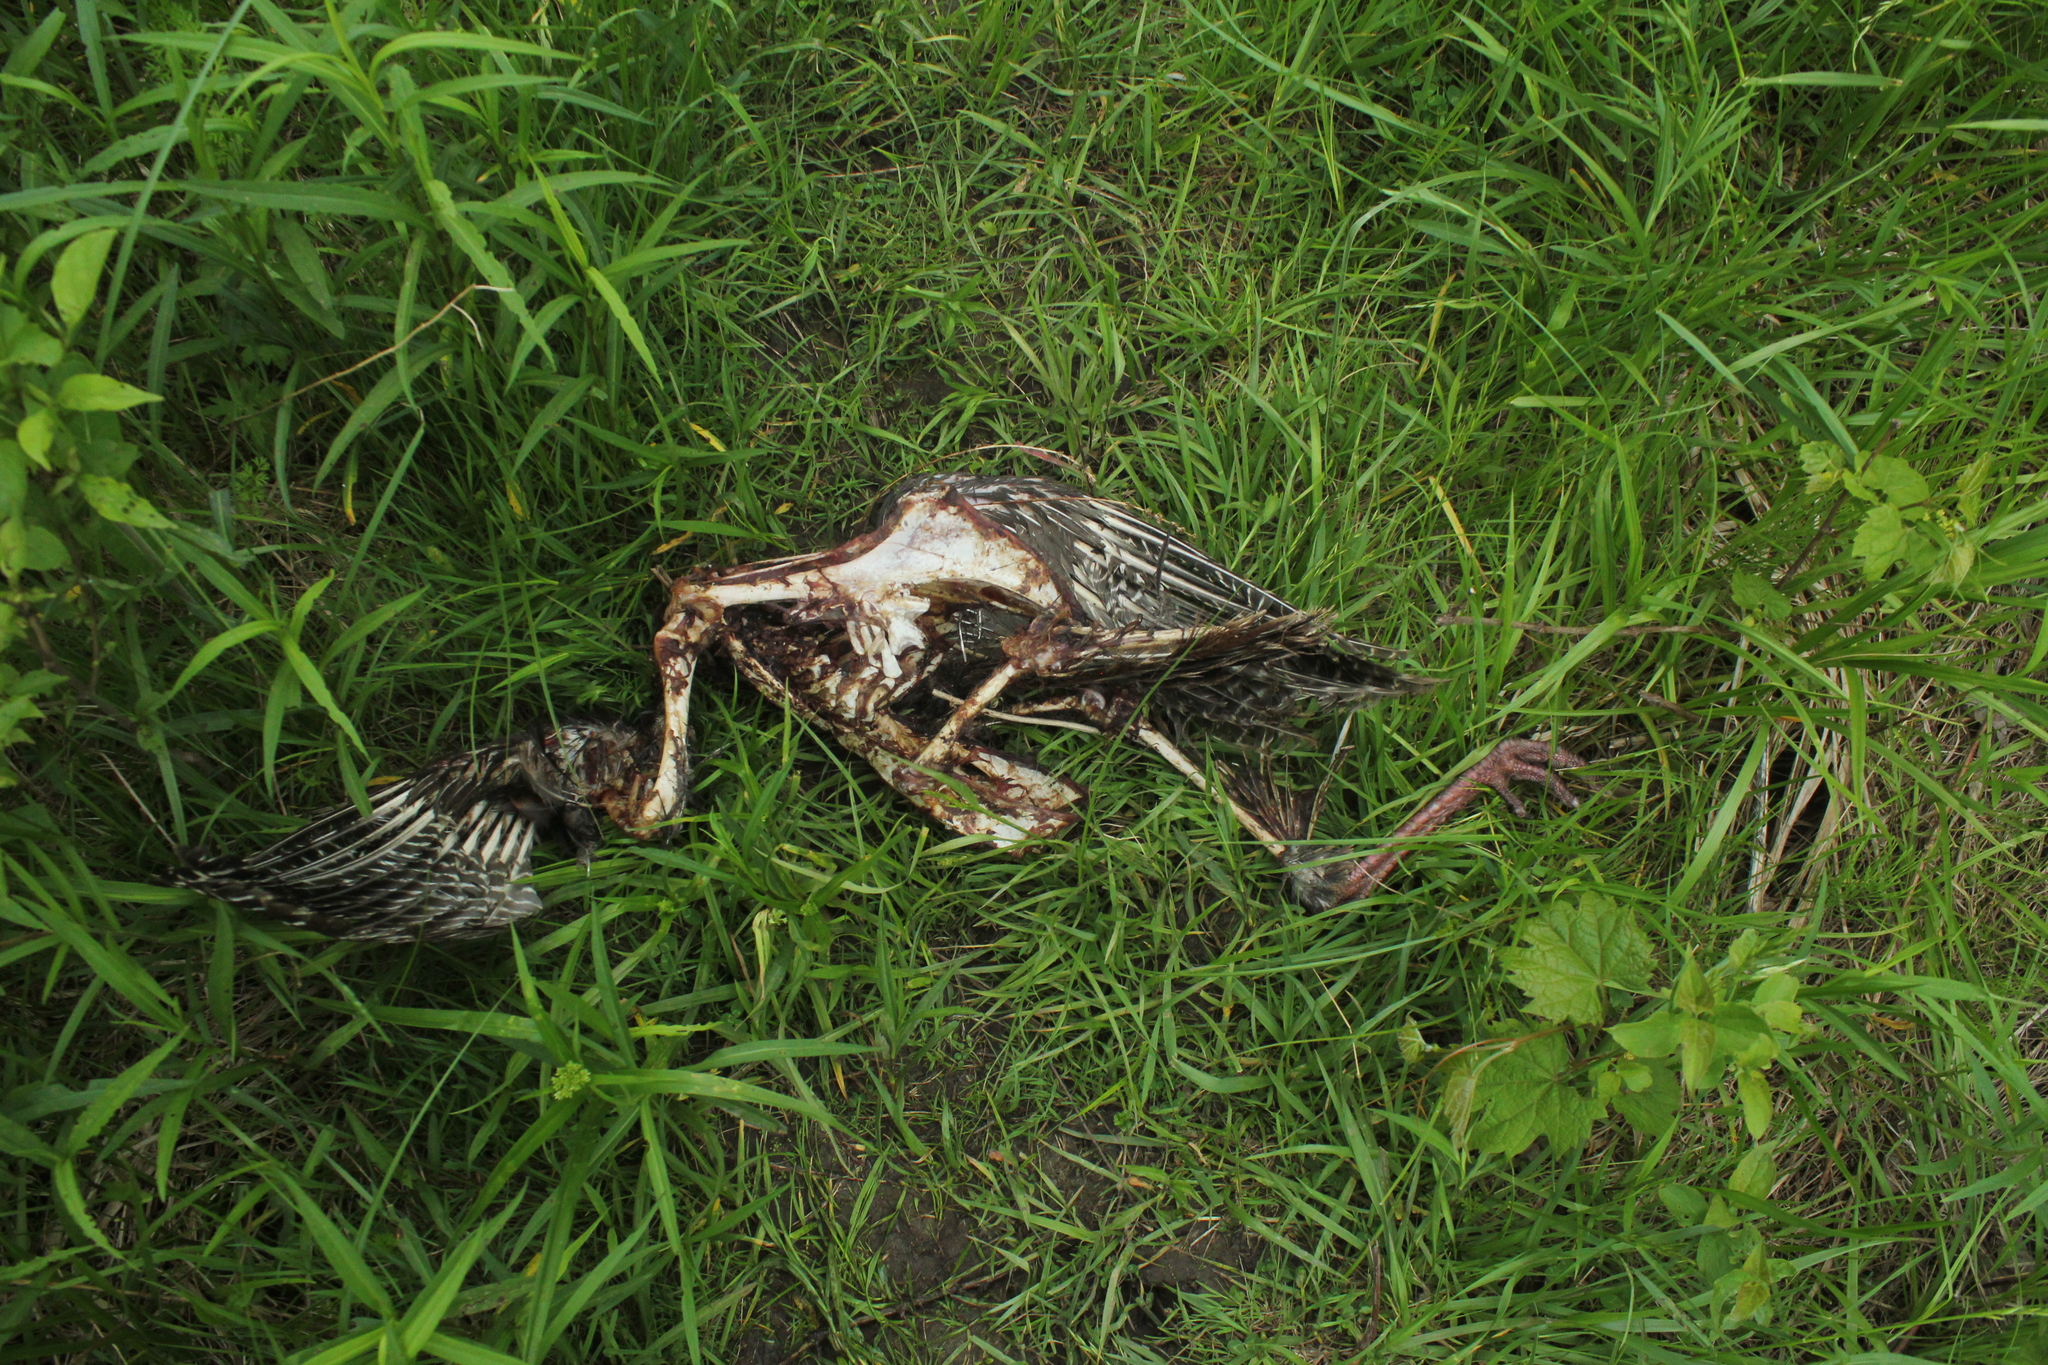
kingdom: Animalia
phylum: Chordata
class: Aves
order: Galliformes
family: Phasianidae
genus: Meleagris
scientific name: Meleagris gallopavo
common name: Wild turkey
